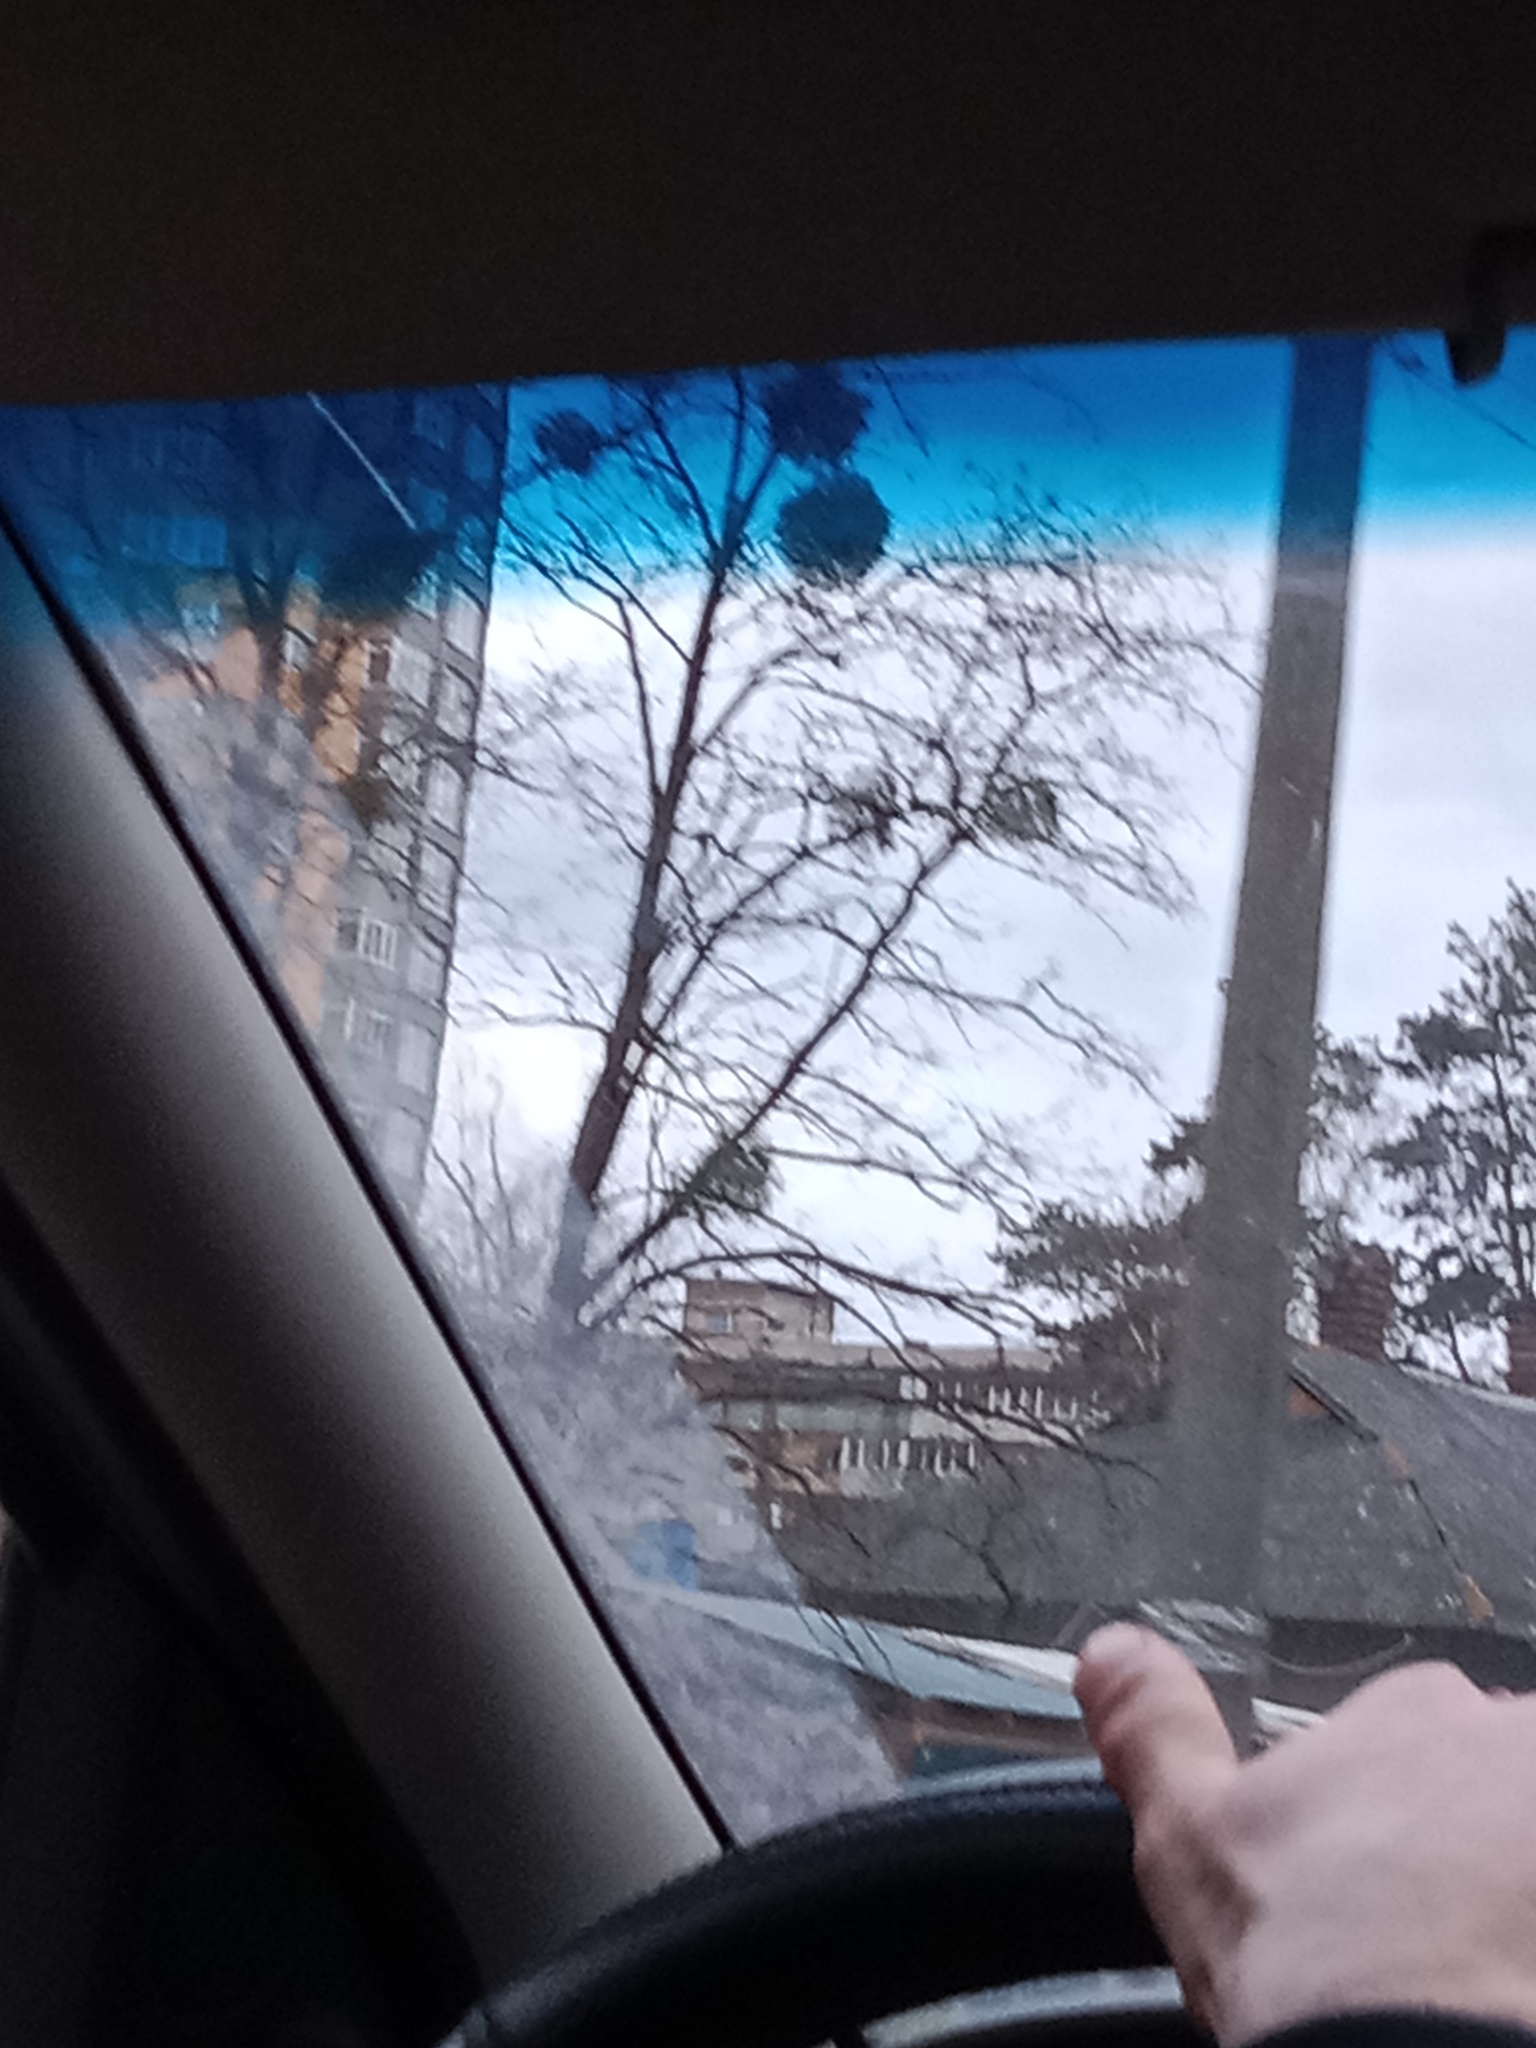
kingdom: Plantae
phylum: Tracheophyta
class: Magnoliopsida
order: Santalales
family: Viscaceae
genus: Viscum
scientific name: Viscum album
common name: Mistletoe
